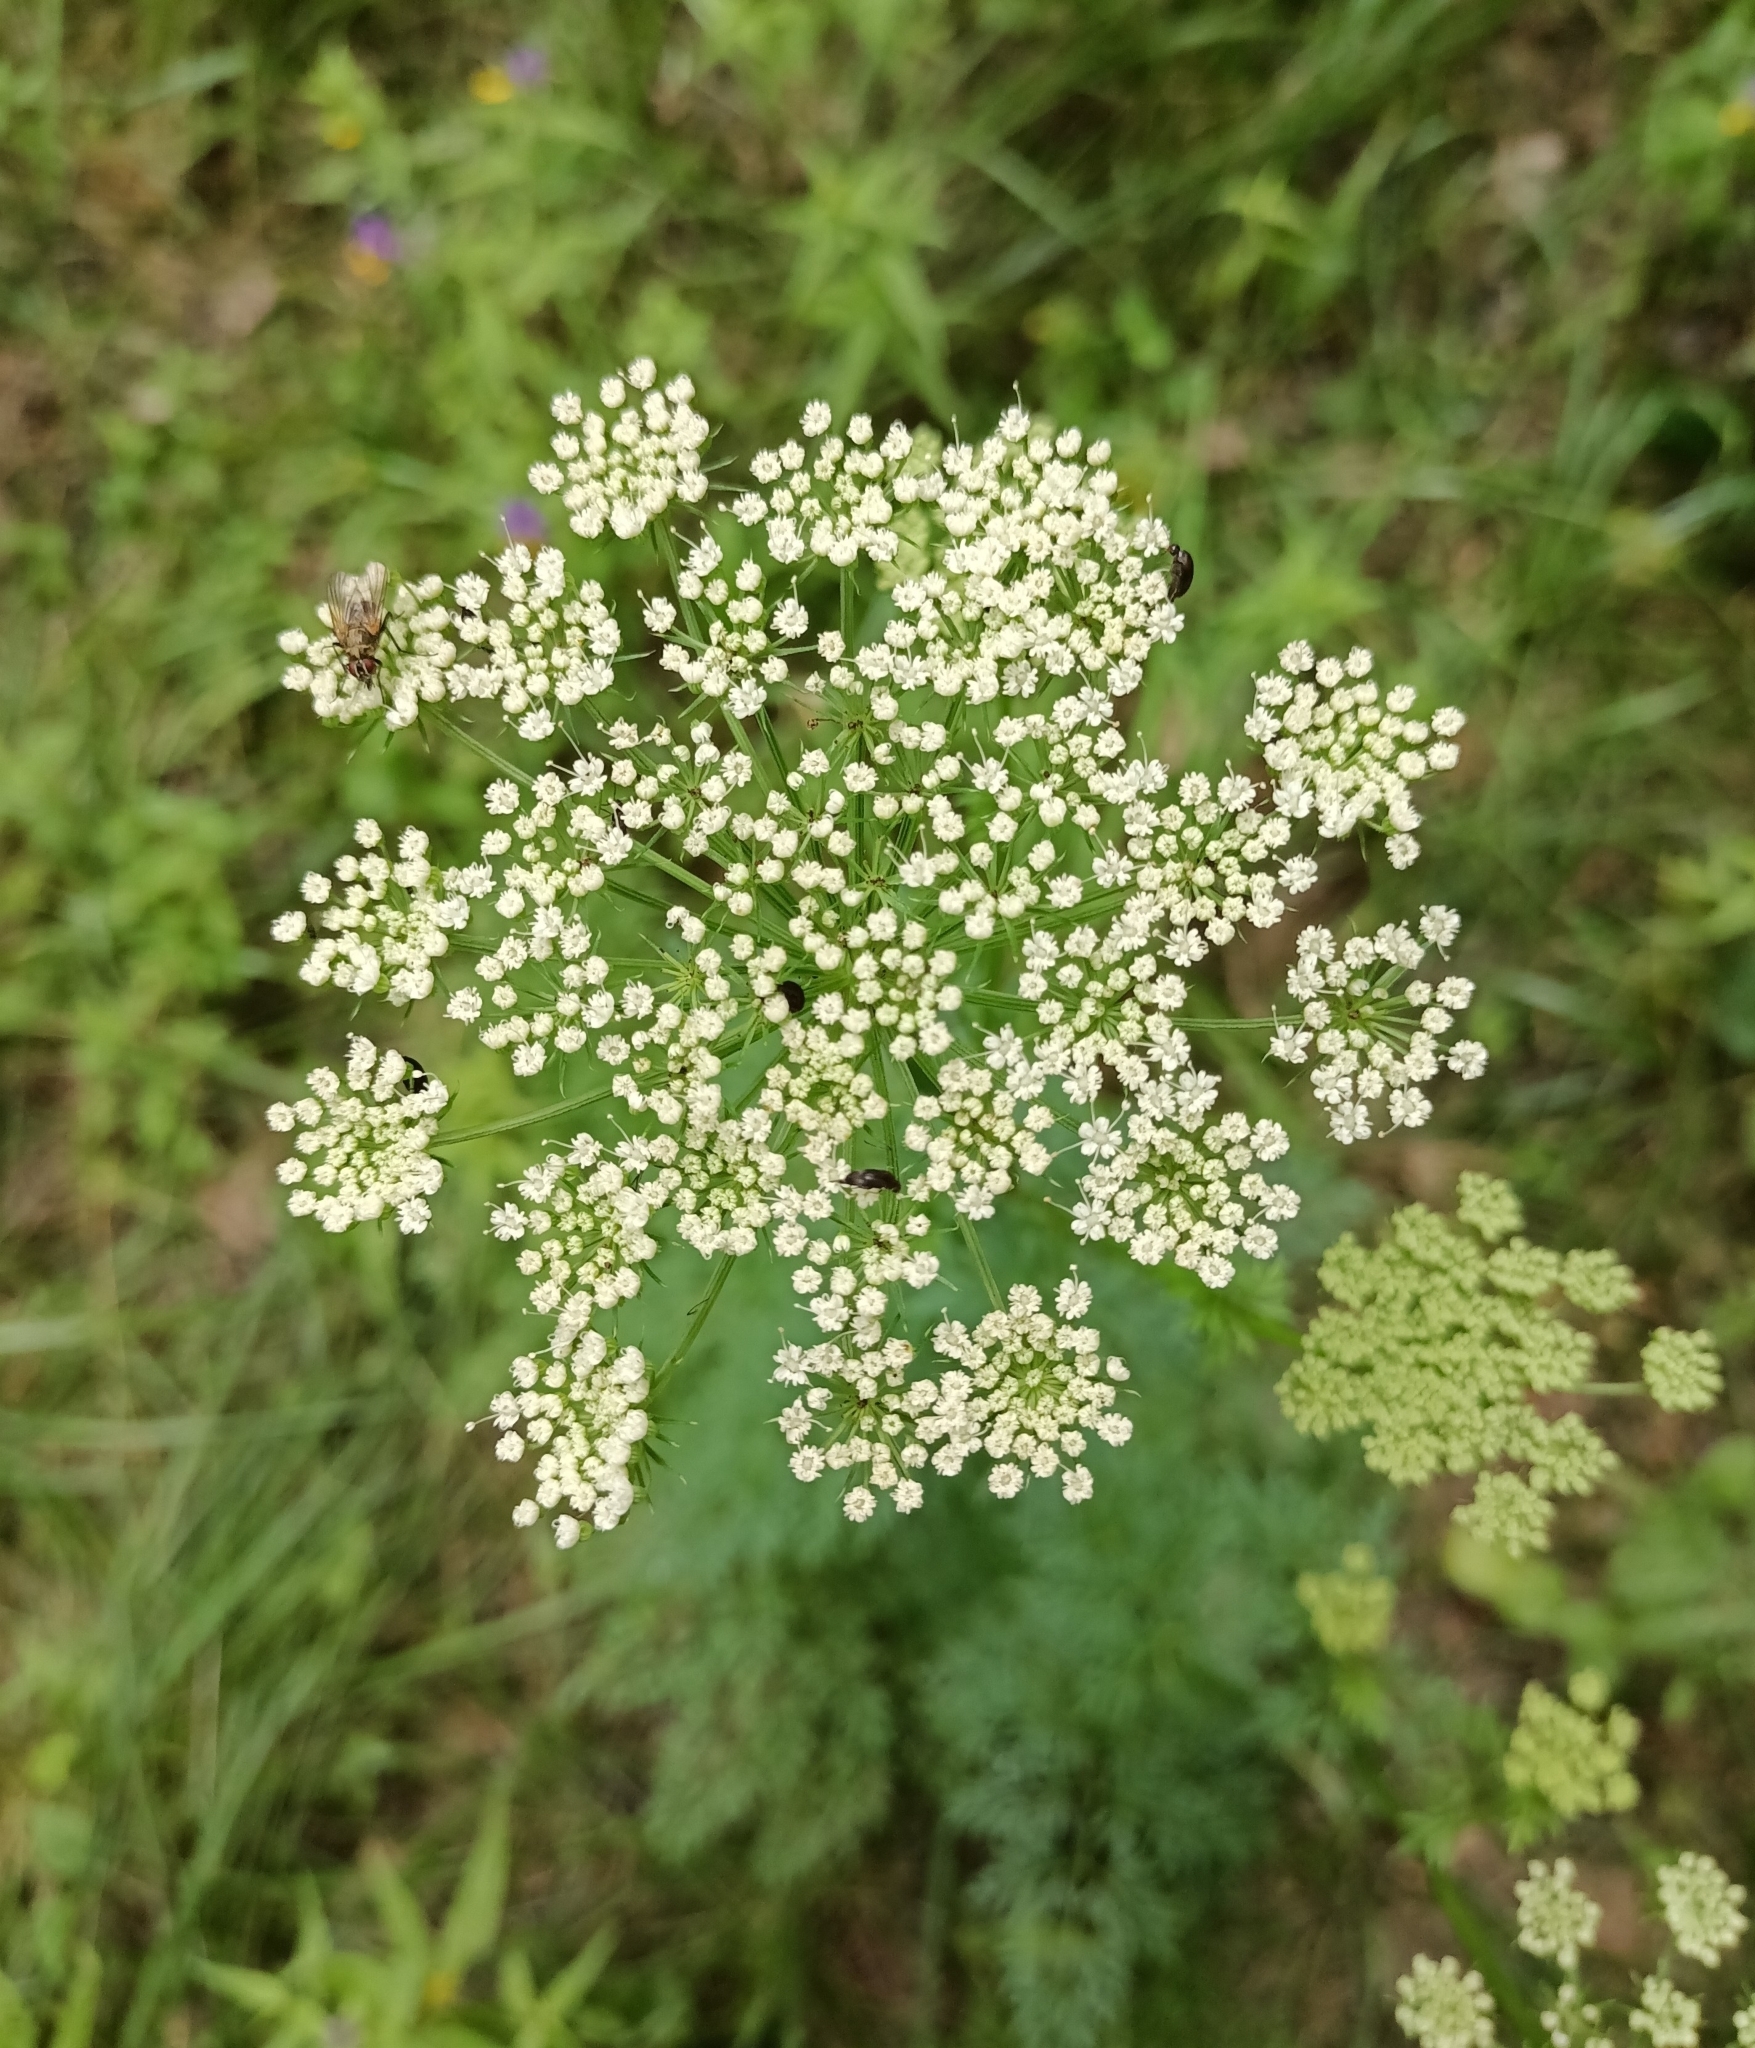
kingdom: Plantae
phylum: Tracheophyta
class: Magnoliopsida
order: Apiales
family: Apiaceae
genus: Selinum
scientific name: Selinum carvifolia
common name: Cambridge milk-parsley
